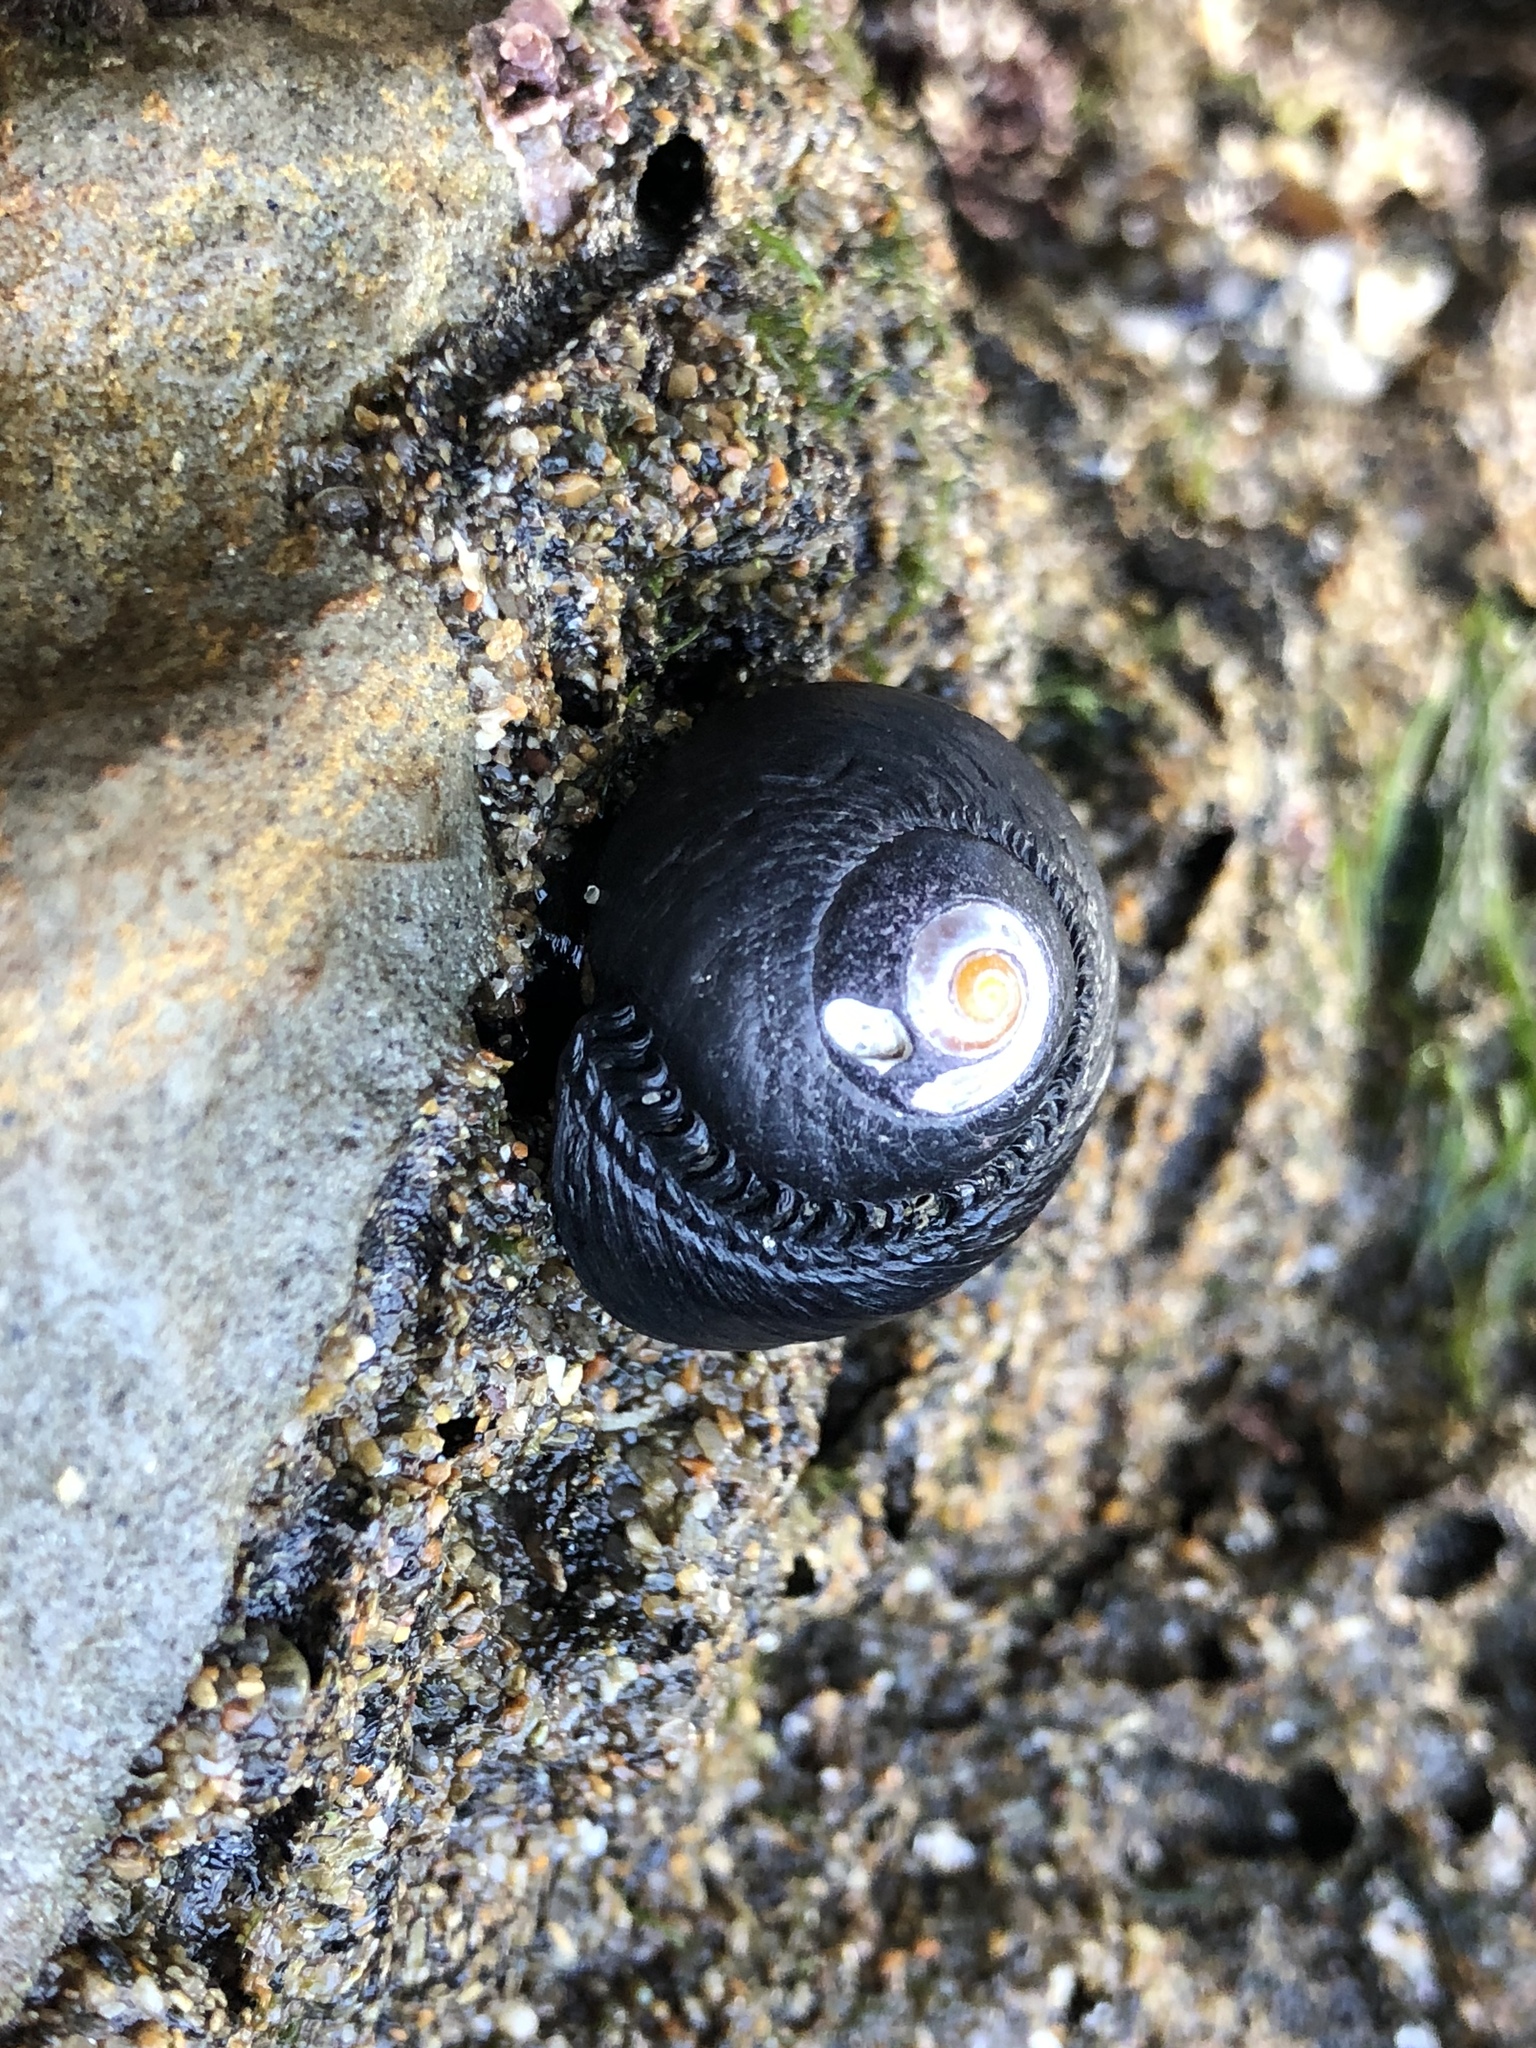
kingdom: Animalia
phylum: Mollusca
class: Gastropoda
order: Trochida
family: Tegulidae
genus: Tegula
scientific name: Tegula funebralis
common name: Black tegula
